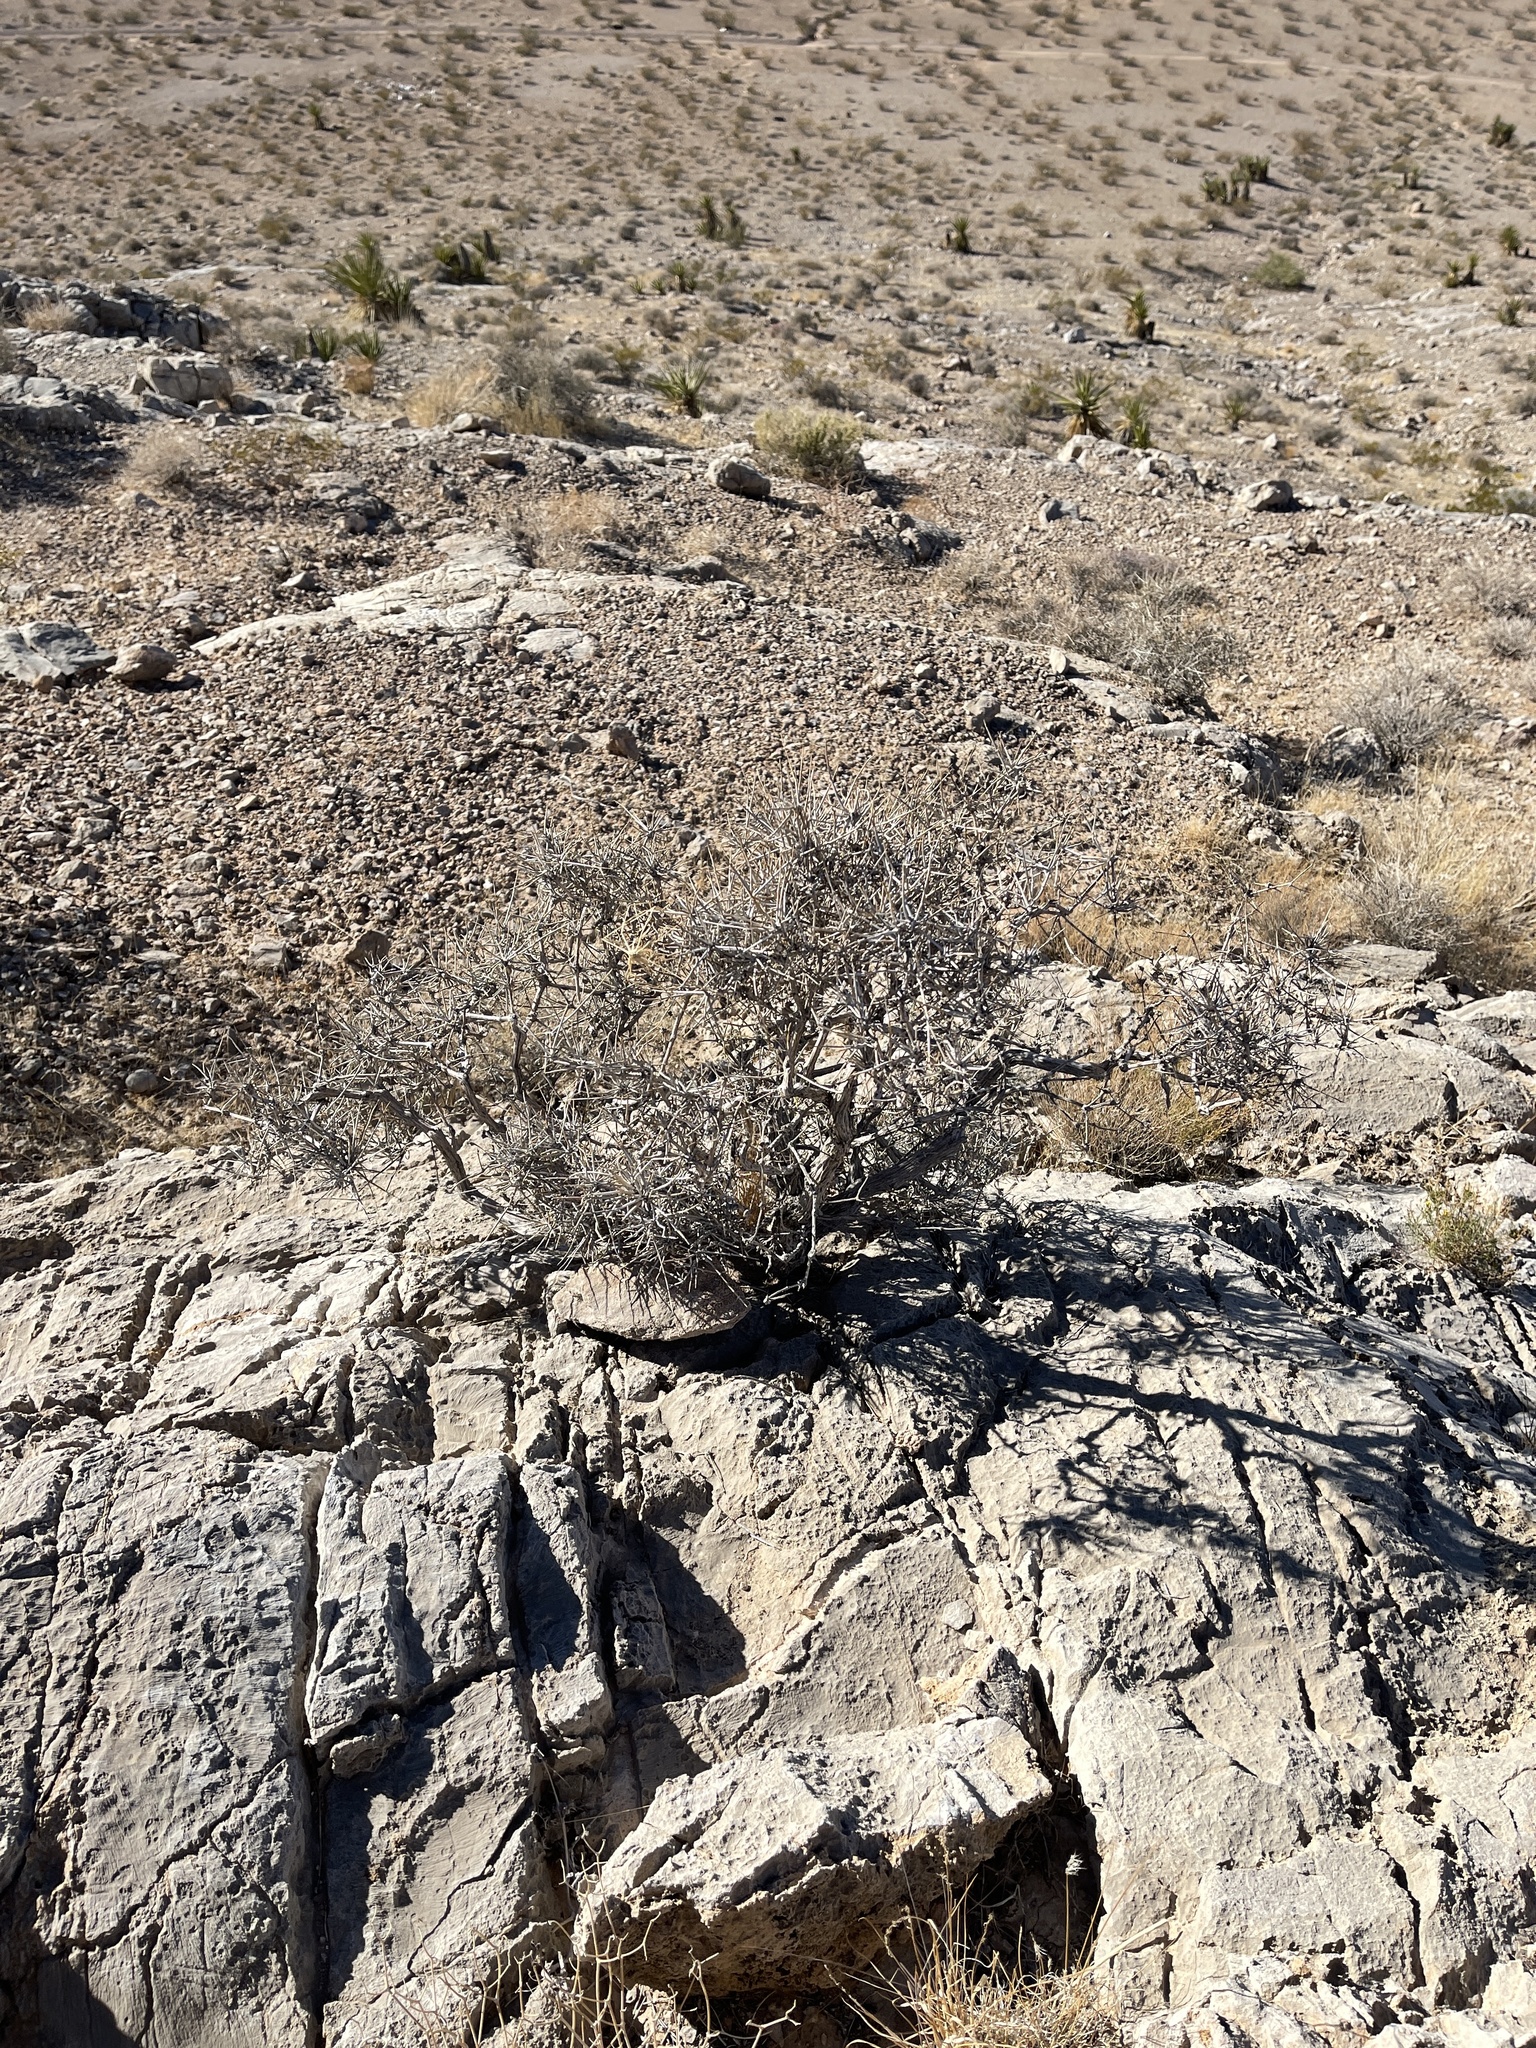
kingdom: Plantae
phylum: Tracheophyta
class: Gnetopsida
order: Ephedrales
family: Ephedraceae
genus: Ephedra
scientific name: Ephedra nevadensis
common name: Gray ephedra
